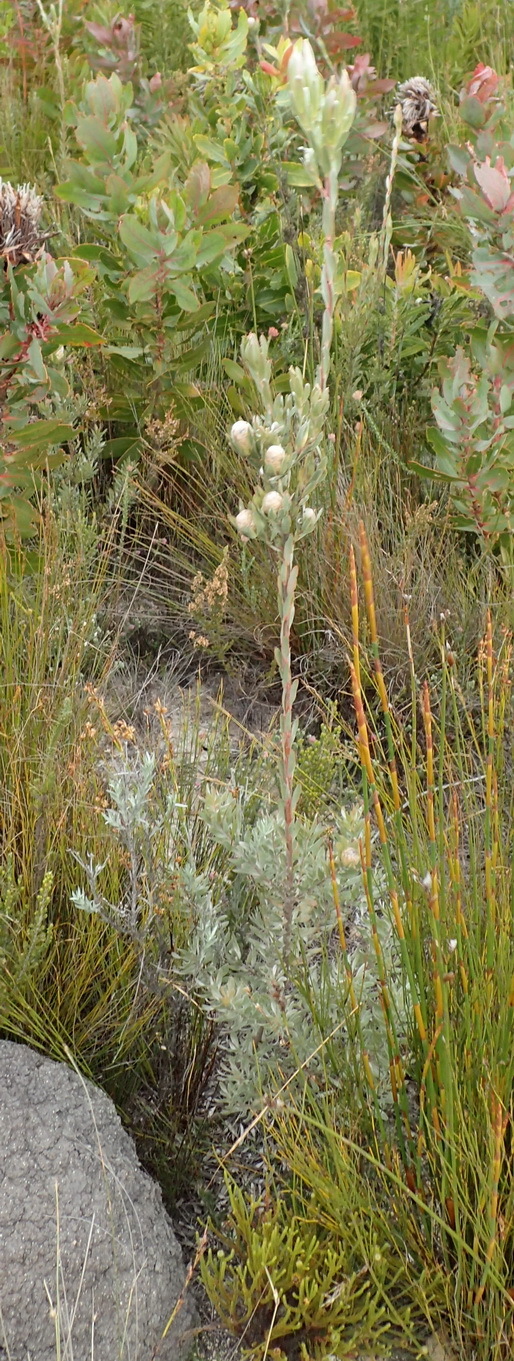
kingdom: Plantae
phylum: Tracheophyta
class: Magnoliopsida
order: Proteales
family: Proteaceae
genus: Leucadendron
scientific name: Leucadendron uliginosum
